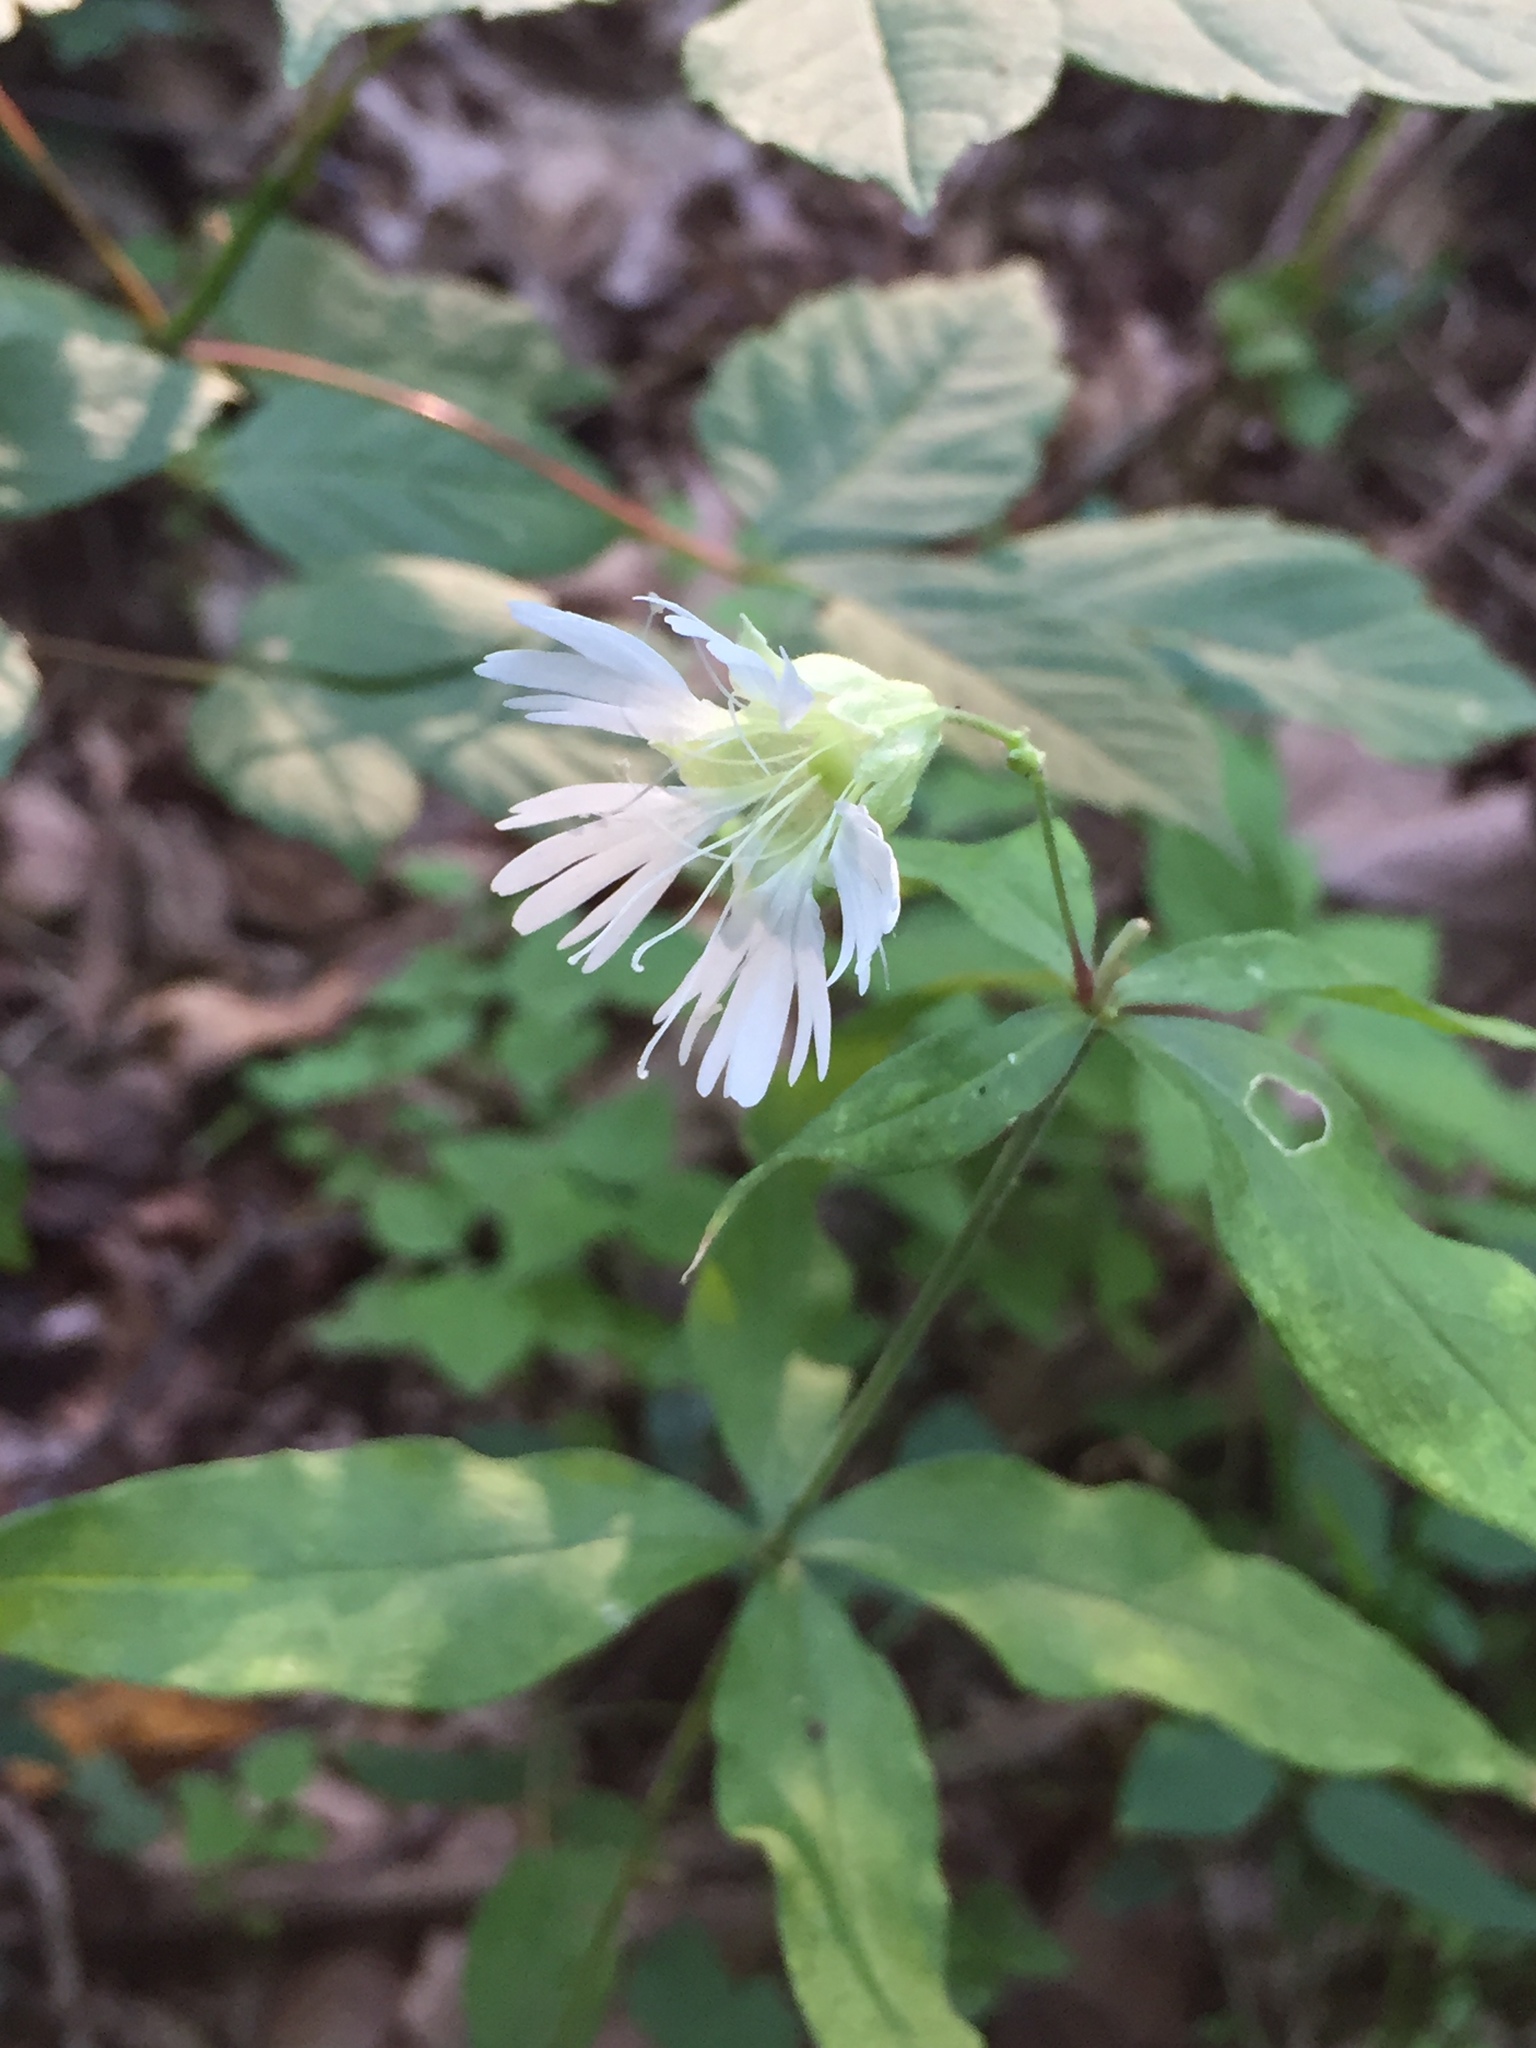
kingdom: Plantae
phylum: Tracheophyta
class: Magnoliopsida
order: Caryophyllales
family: Caryophyllaceae
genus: Silene
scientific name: Silene stellata
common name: Starry campion
